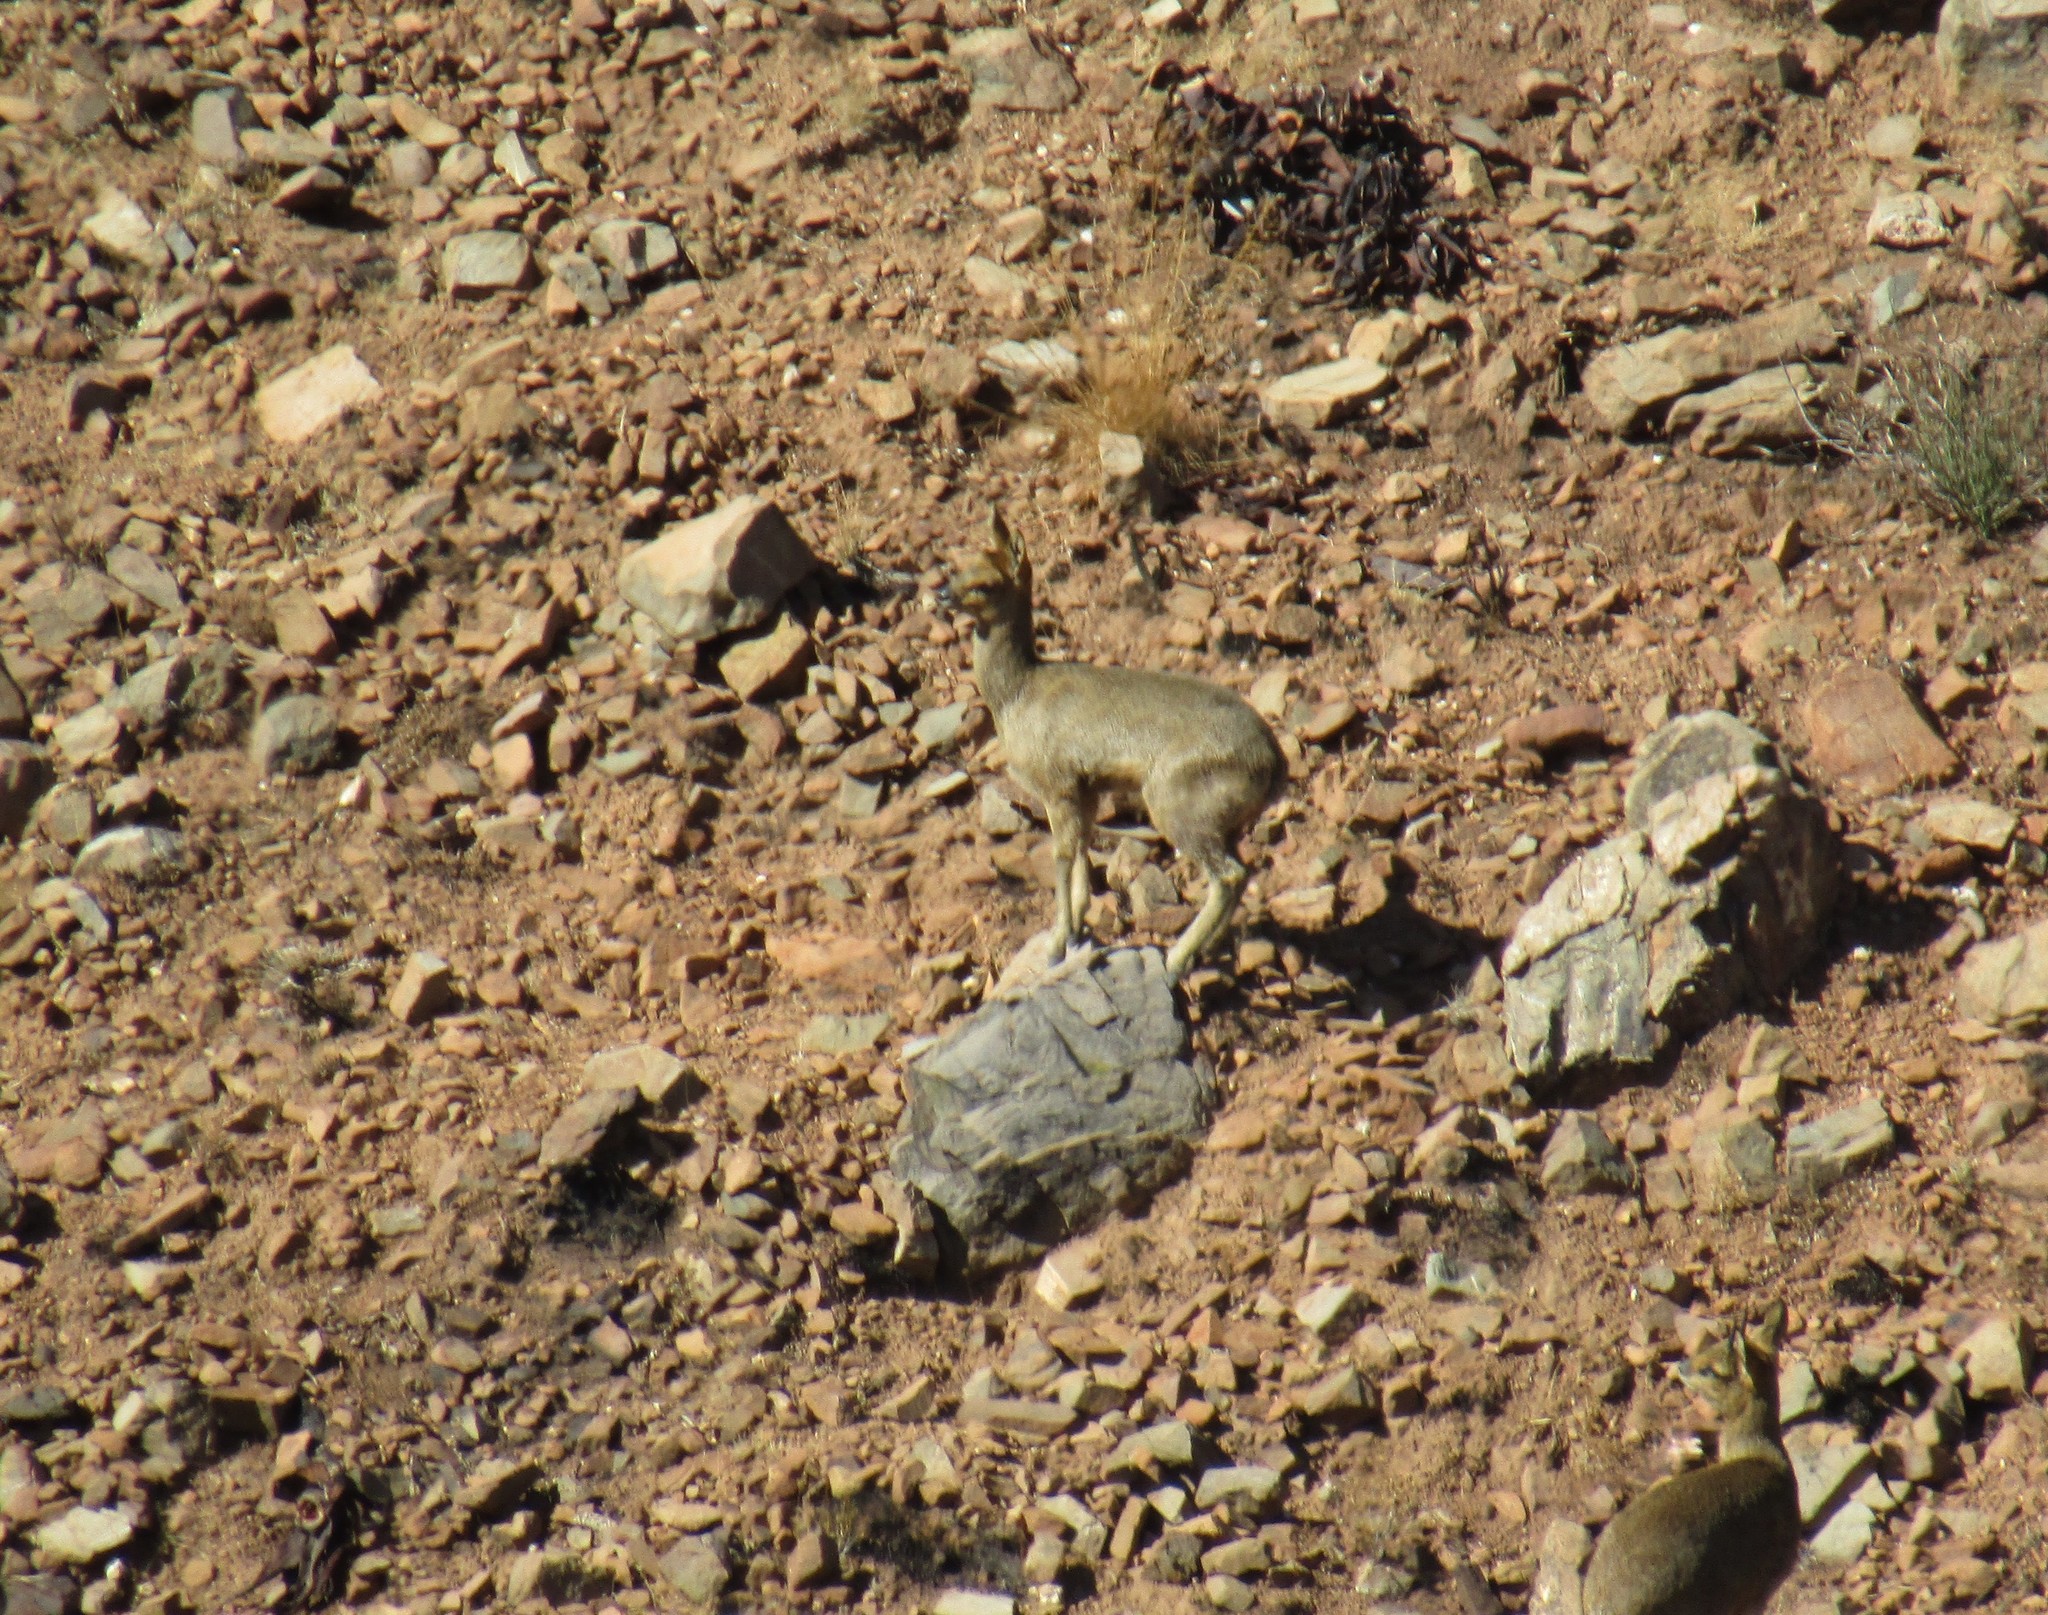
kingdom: Animalia
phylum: Chordata
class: Mammalia
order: Artiodactyla
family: Bovidae
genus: Oreotragus
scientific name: Oreotragus oreotragus
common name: Klipspringer
